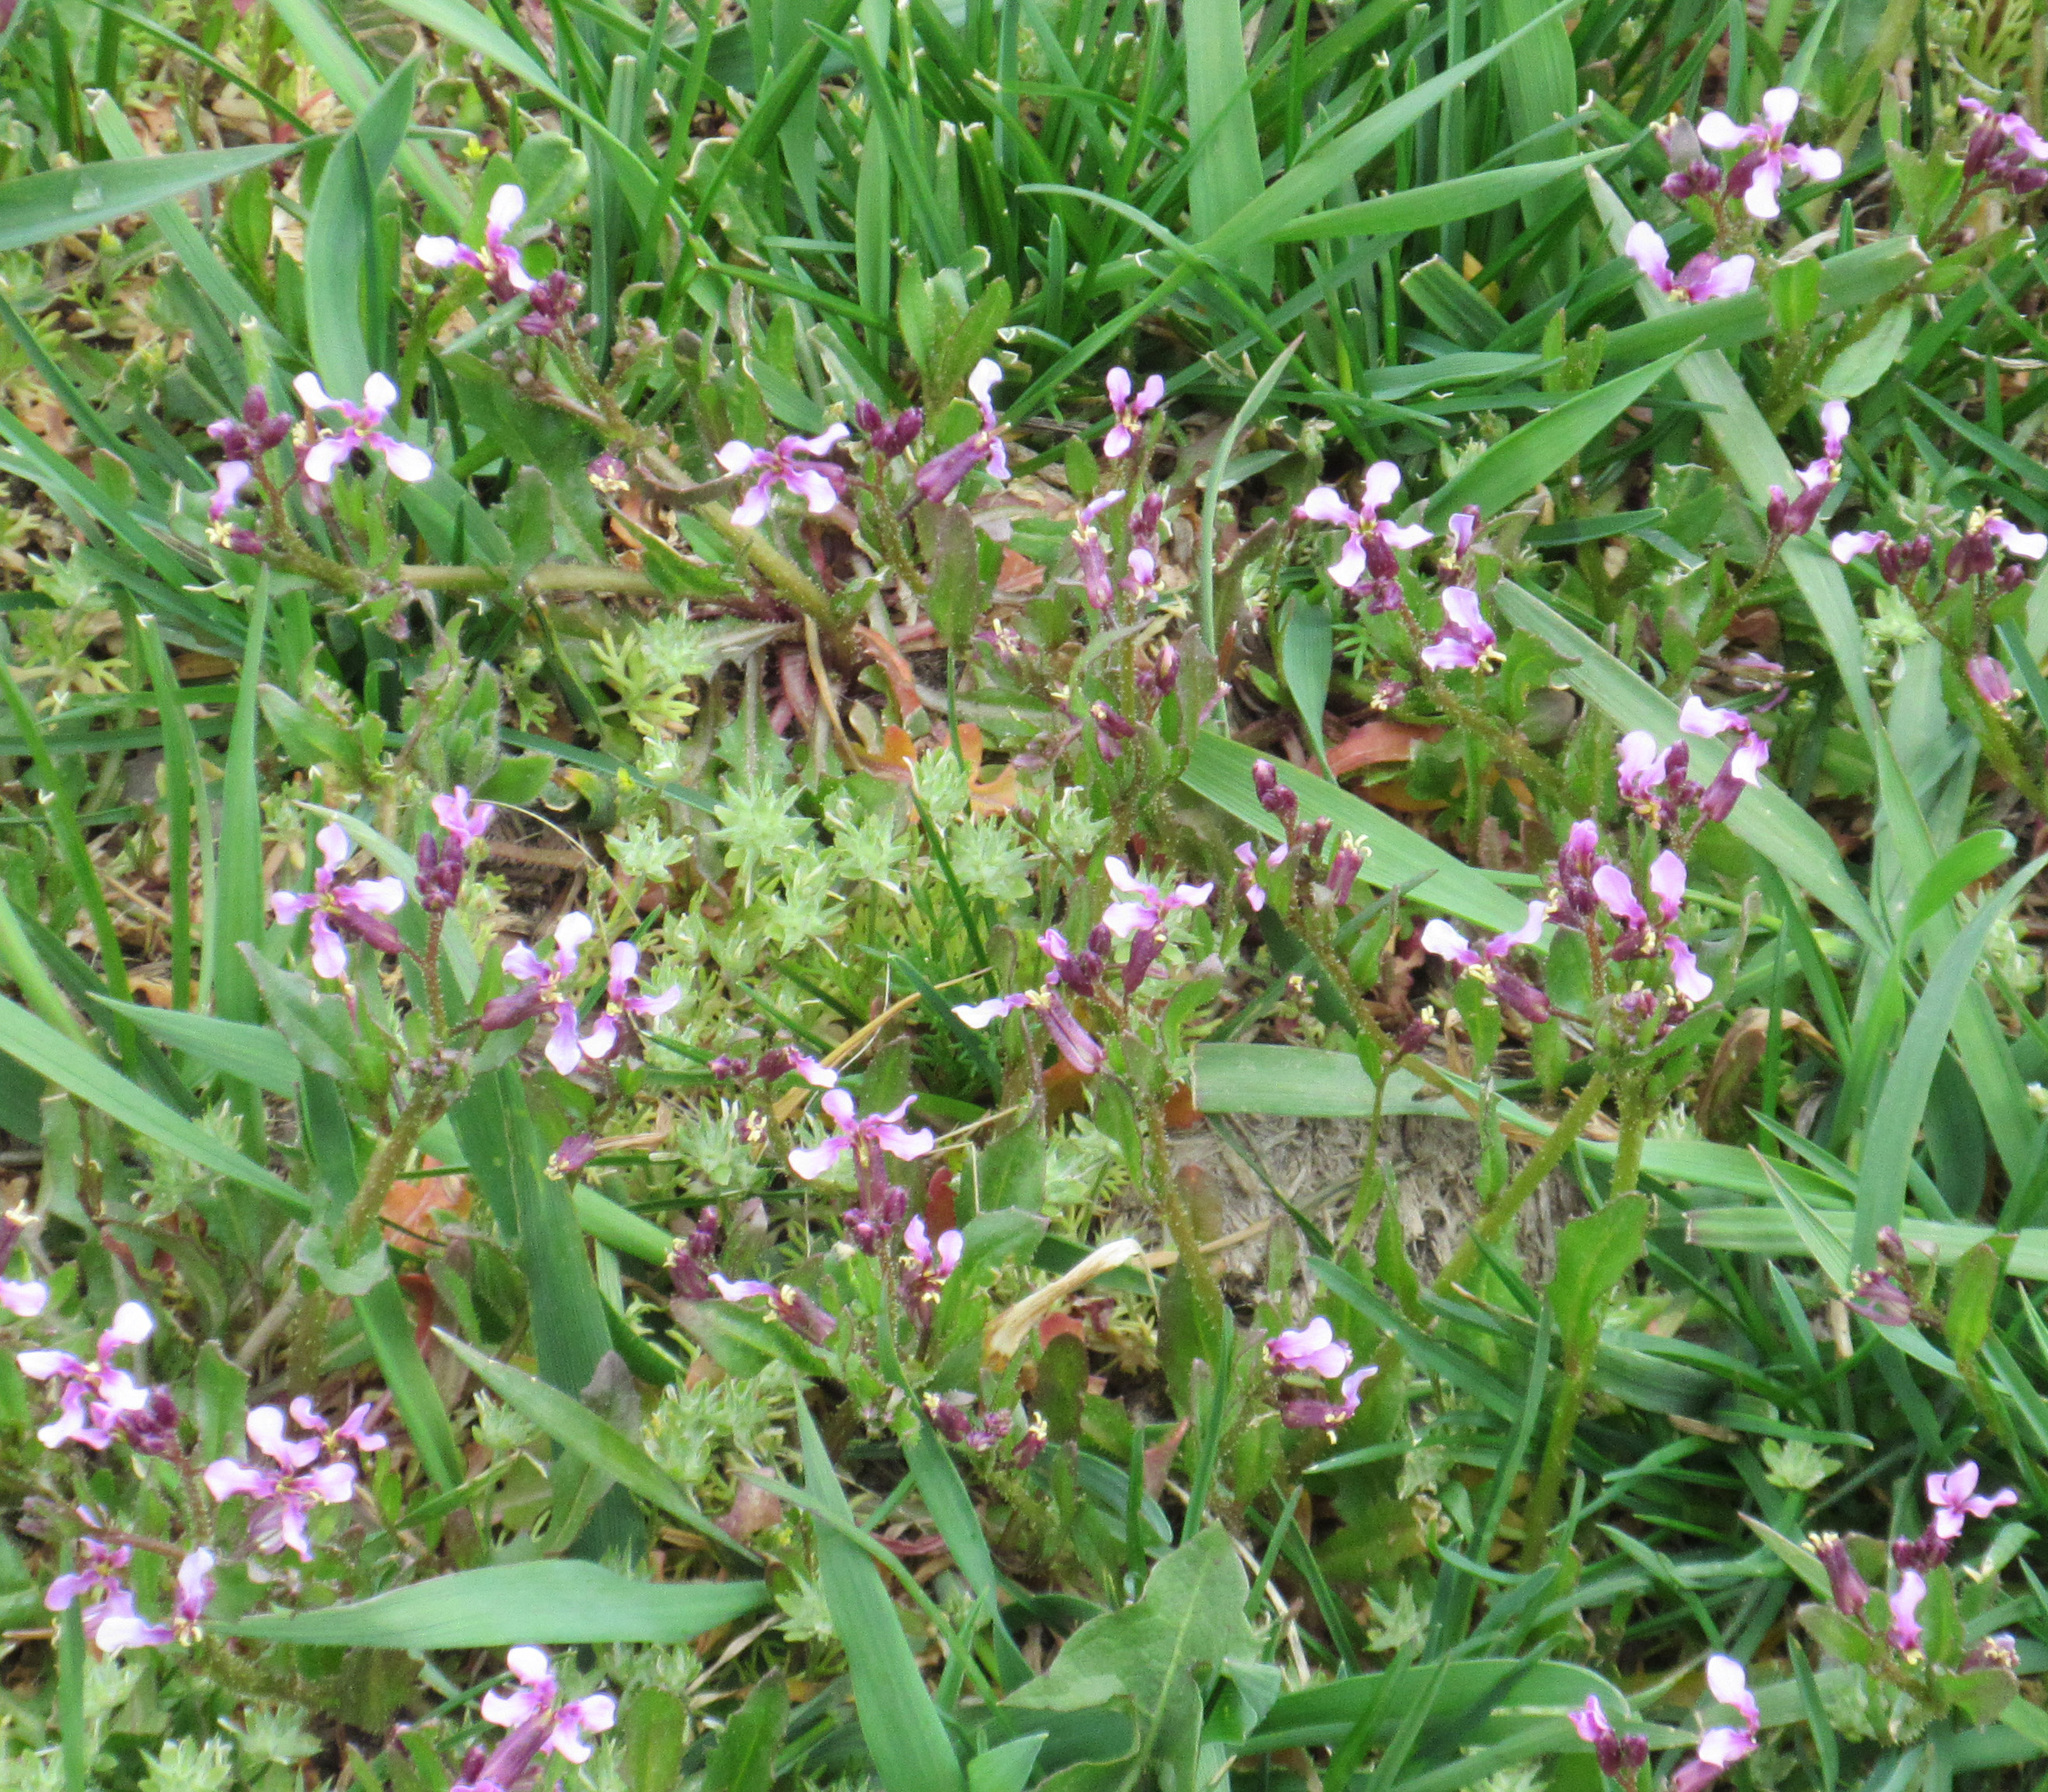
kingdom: Plantae
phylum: Tracheophyta
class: Magnoliopsida
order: Brassicales
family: Brassicaceae
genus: Chorispora
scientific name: Chorispora tenella
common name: Crossflower
